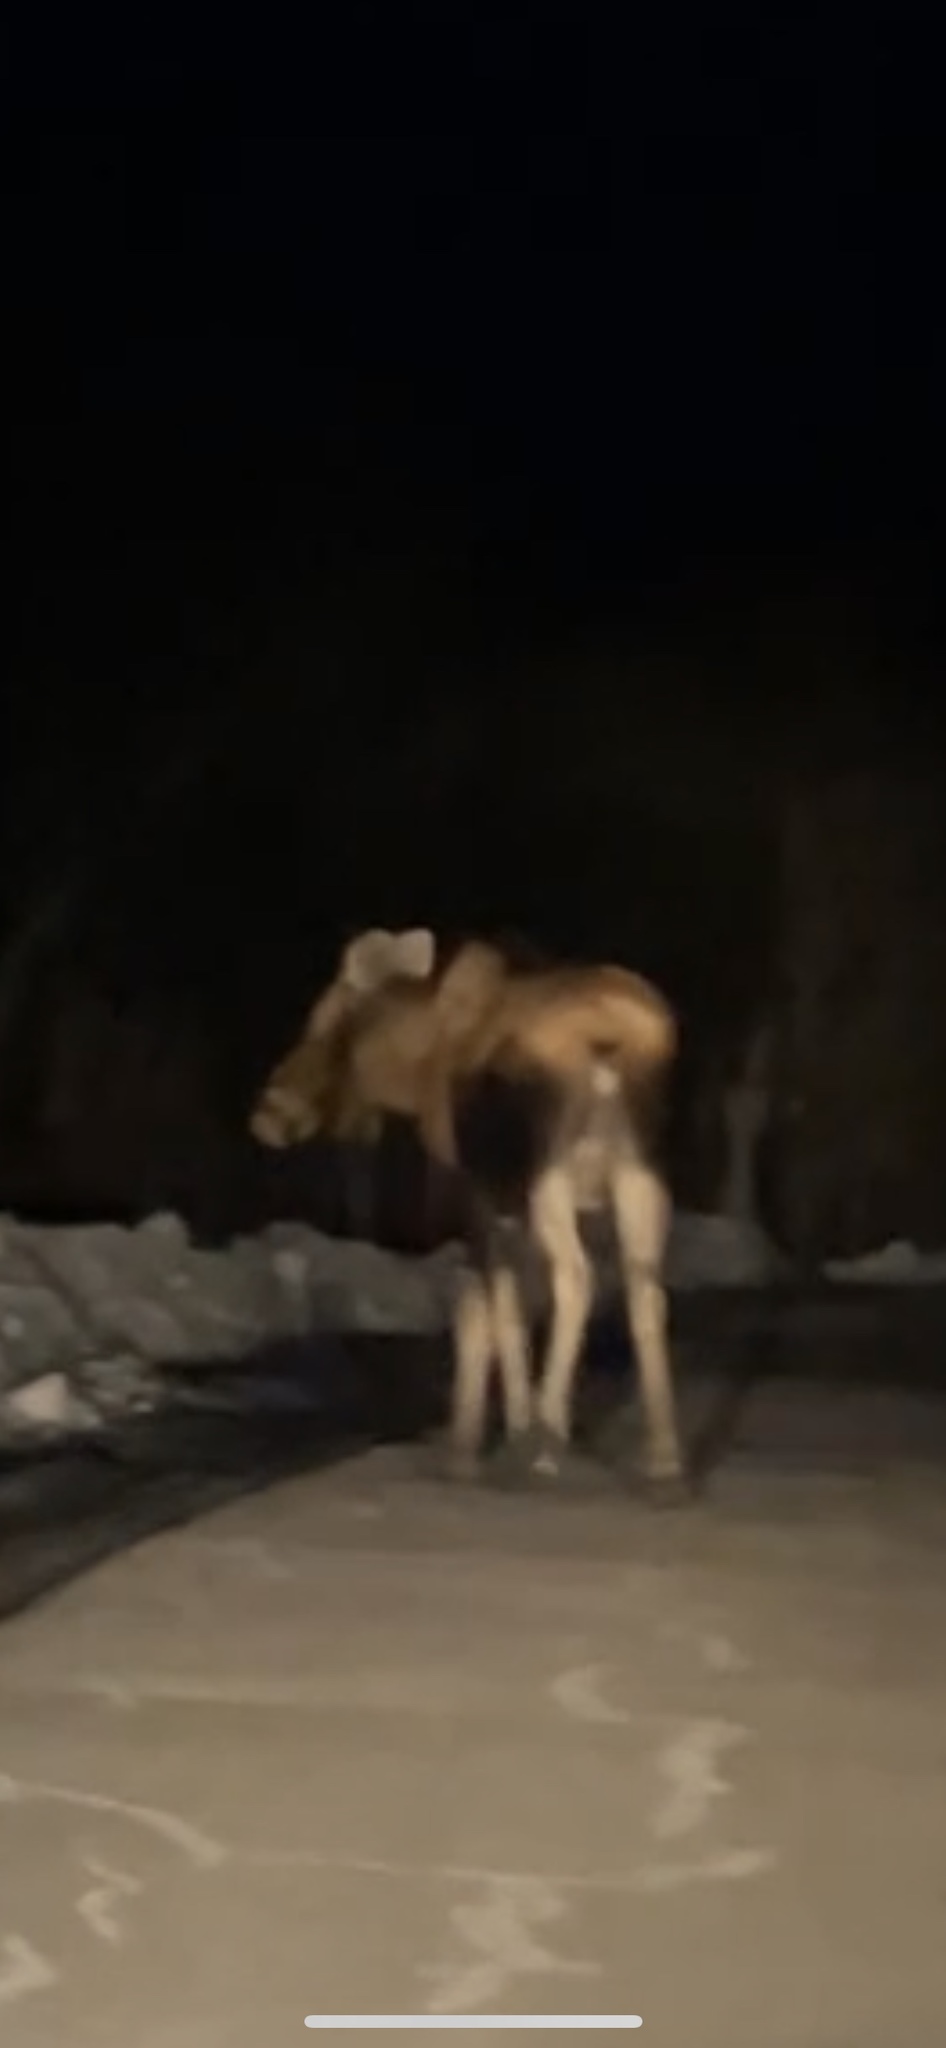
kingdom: Animalia
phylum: Chordata
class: Mammalia
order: Artiodactyla
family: Cervidae
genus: Alces
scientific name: Alces alces
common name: Moose
